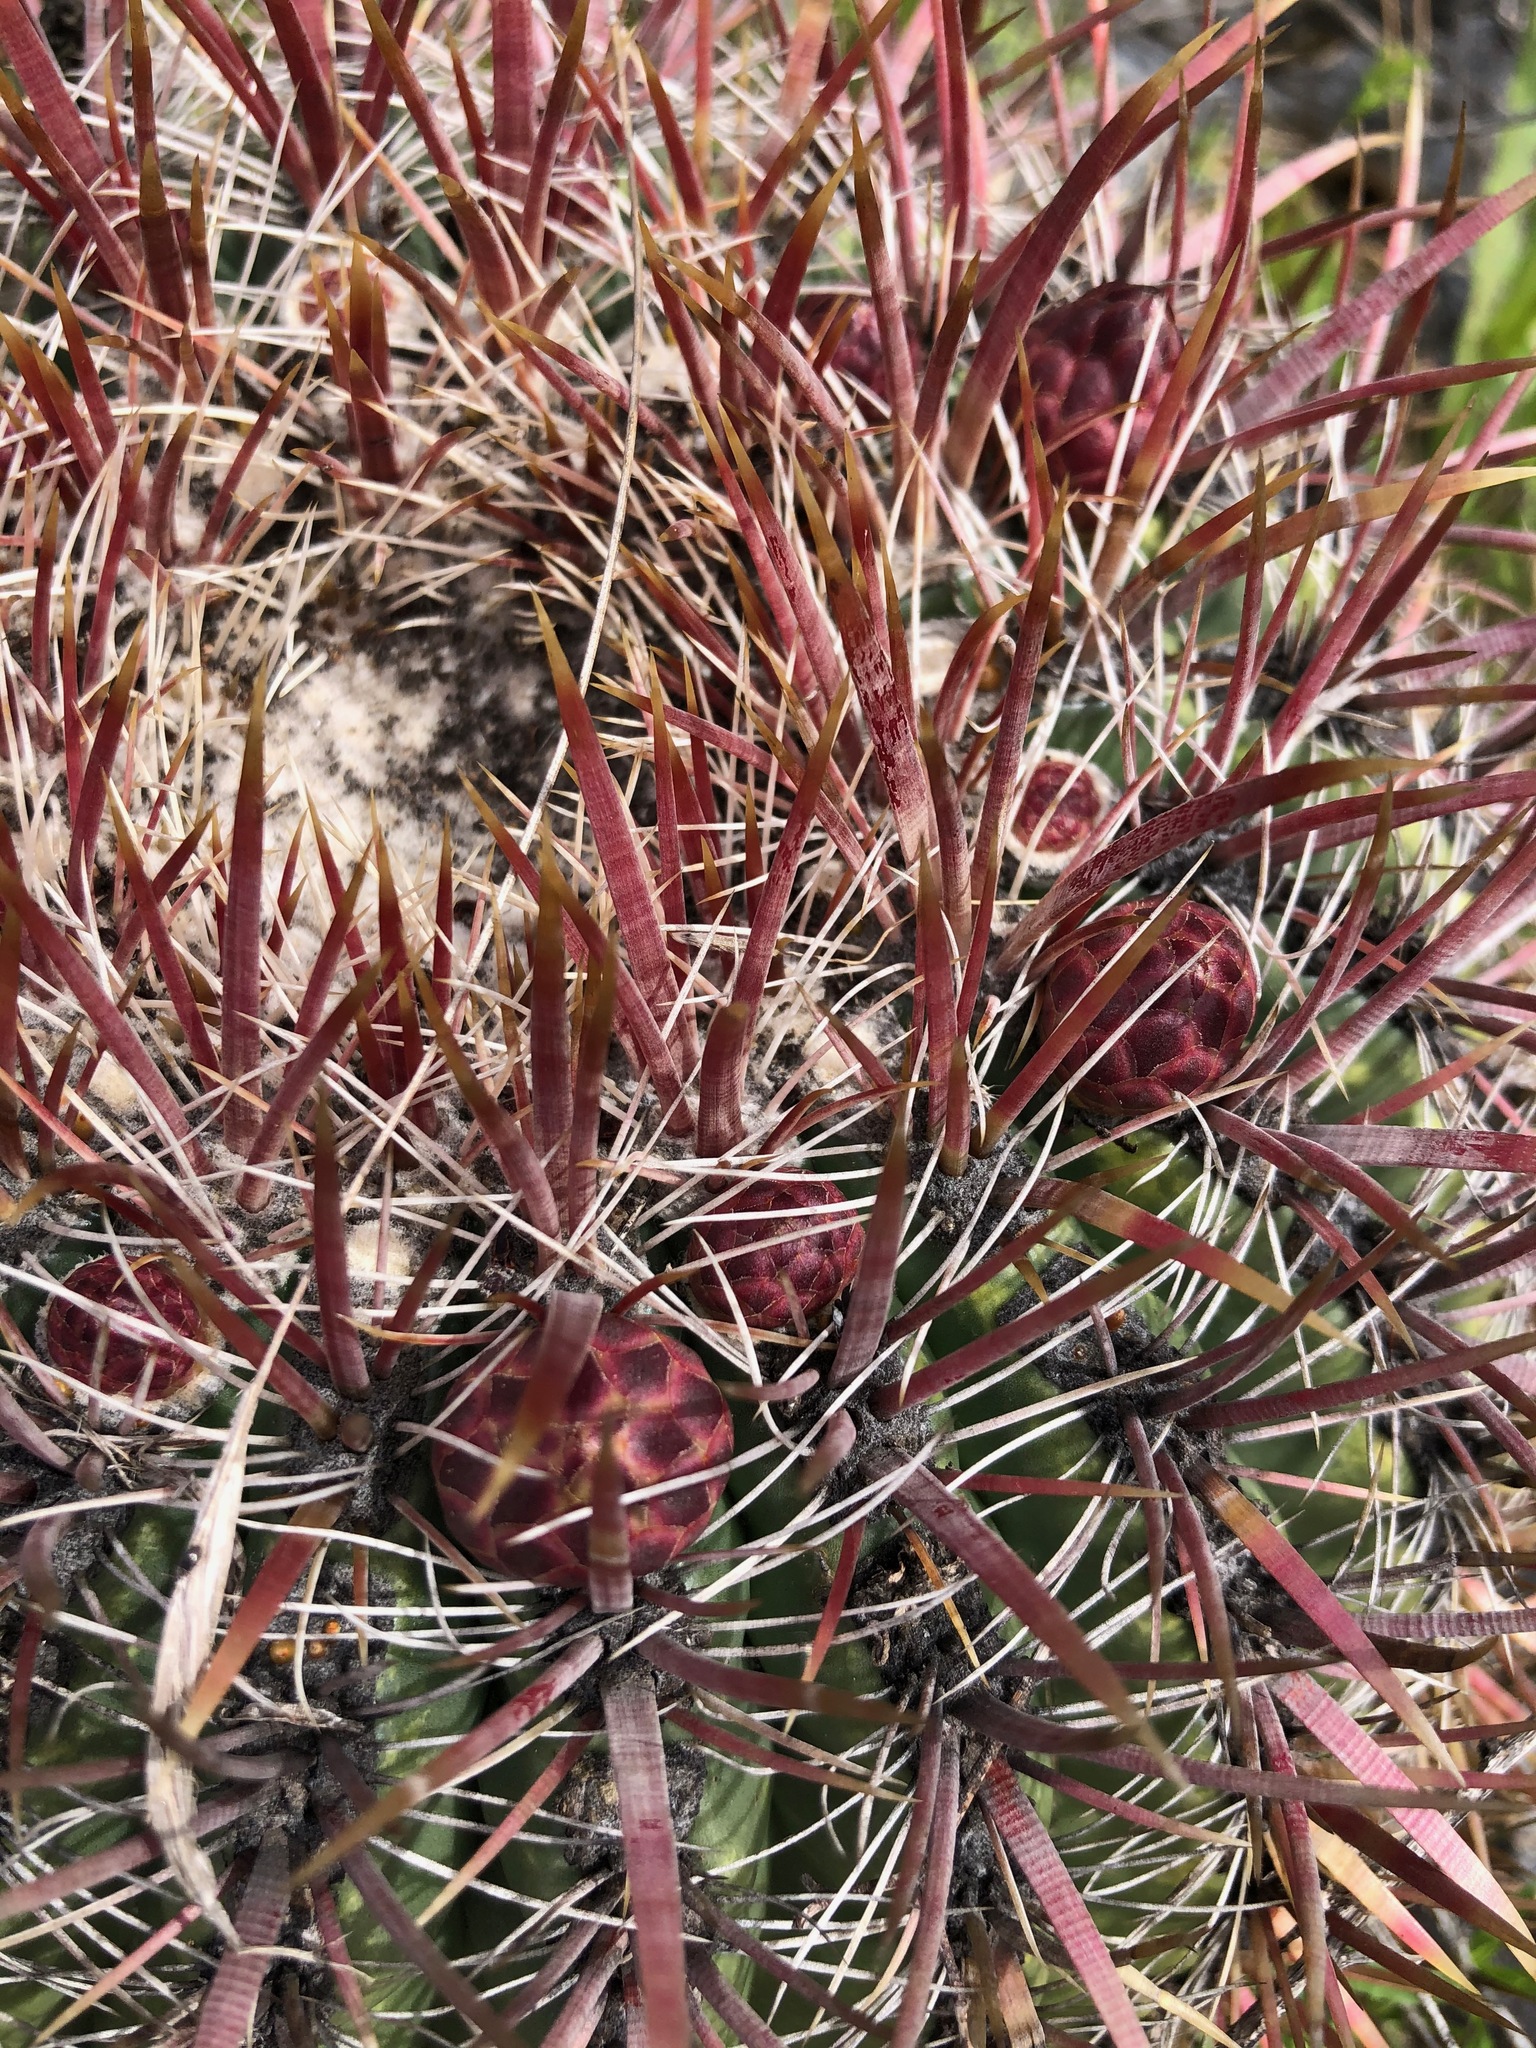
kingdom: Plantae
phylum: Tracheophyta
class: Magnoliopsida
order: Caryophyllales
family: Cactaceae
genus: Ferocactus
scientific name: Ferocactus viridescens
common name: San diego barrel cactus
